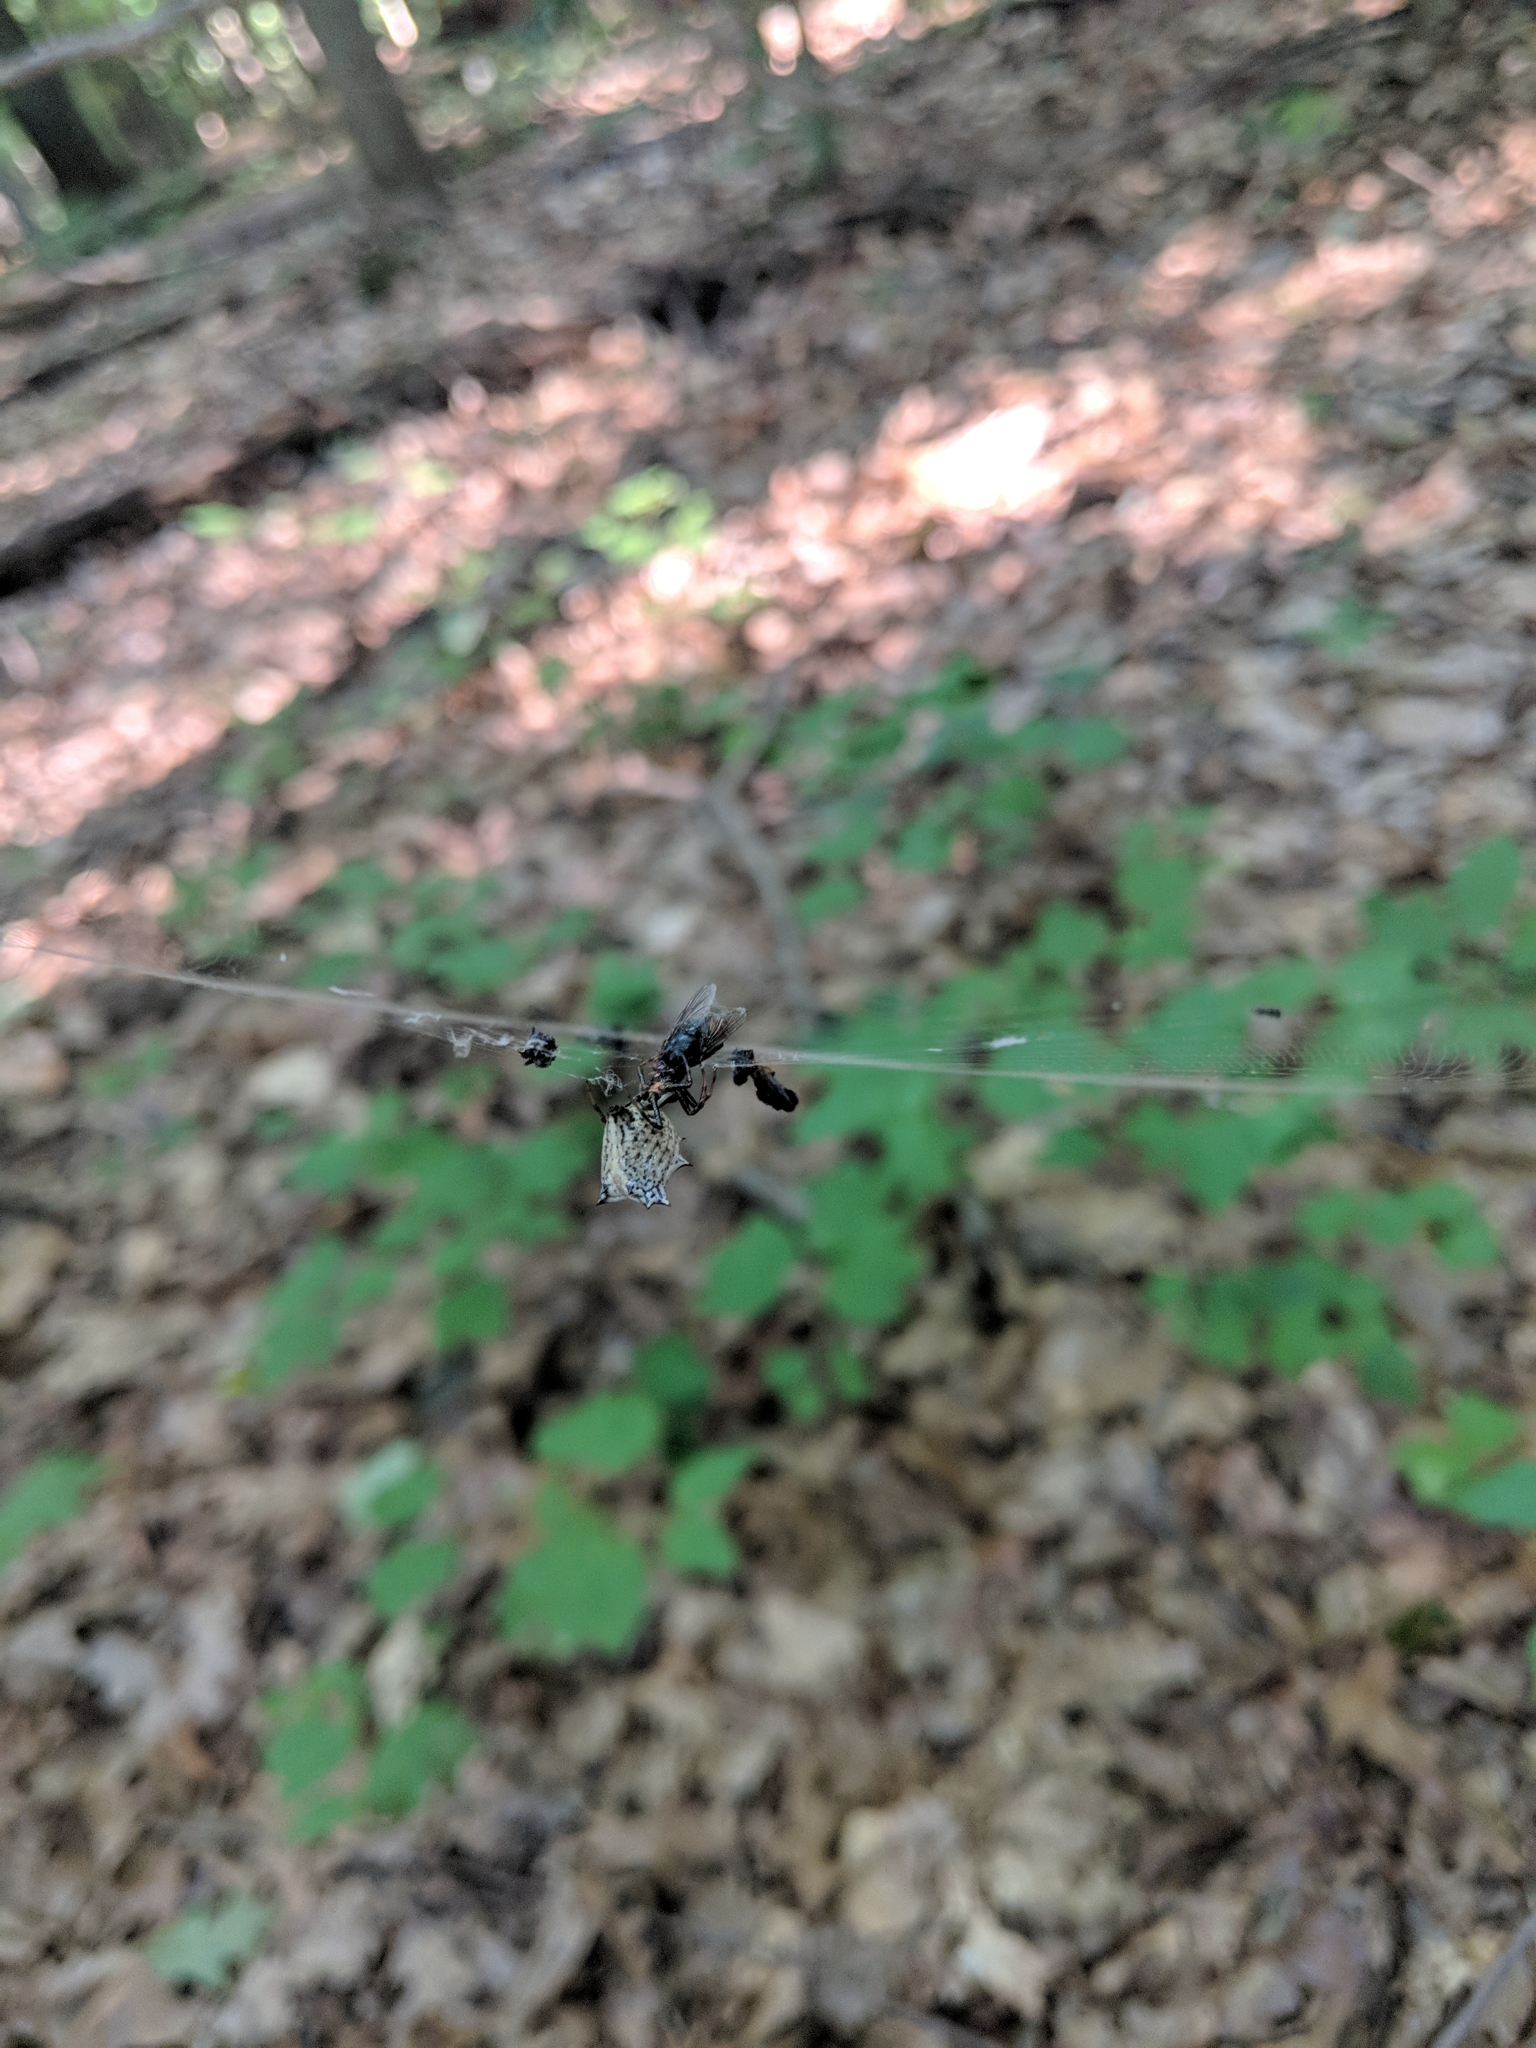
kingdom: Animalia
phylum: Arthropoda
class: Arachnida
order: Araneae
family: Araneidae
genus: Micrathena
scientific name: Micrathena gracilis
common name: Orb weavers
